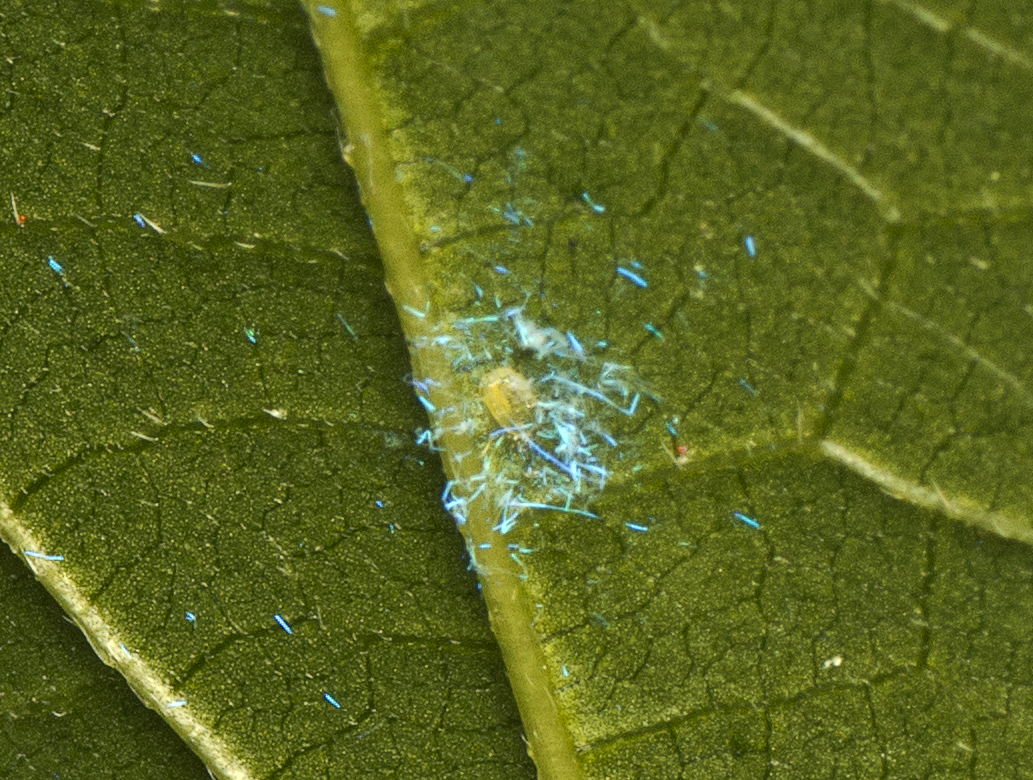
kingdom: Animalia
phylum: Arthropoda
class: Insecta
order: Hemiptera
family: Aleyrodidae
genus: Dialeuropora
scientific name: Dialeuropora decempuncta
